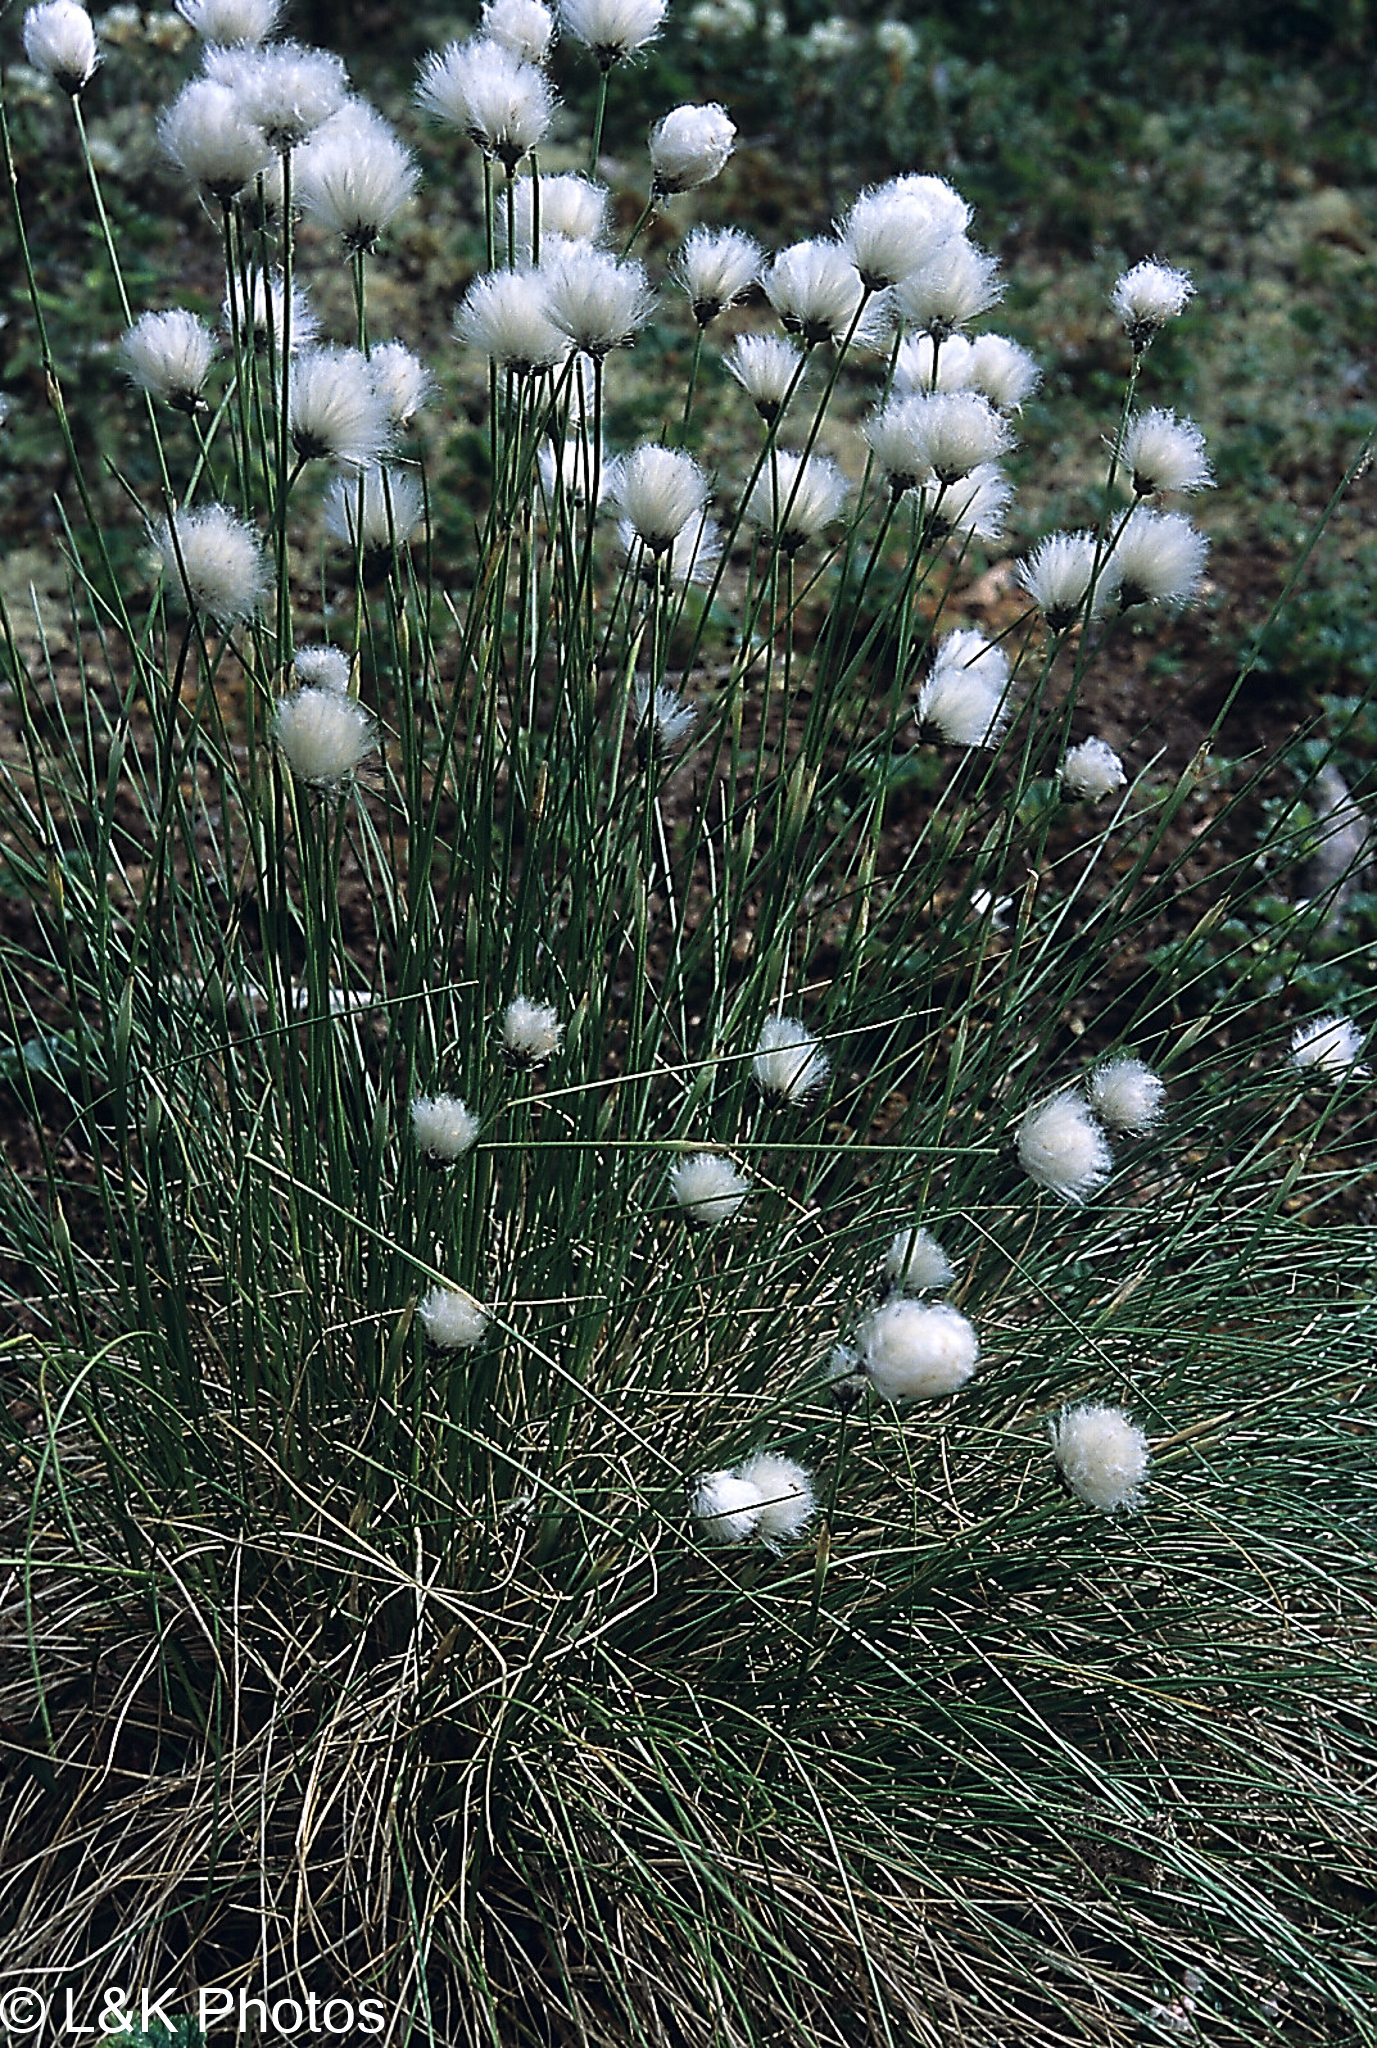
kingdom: Plantae
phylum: Tracheophyta
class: Liliopsida
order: Poales
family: Cyperaceae
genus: Eriophorum
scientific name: Eriophorum vaginatum
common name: Hare's-tail cottongrass
